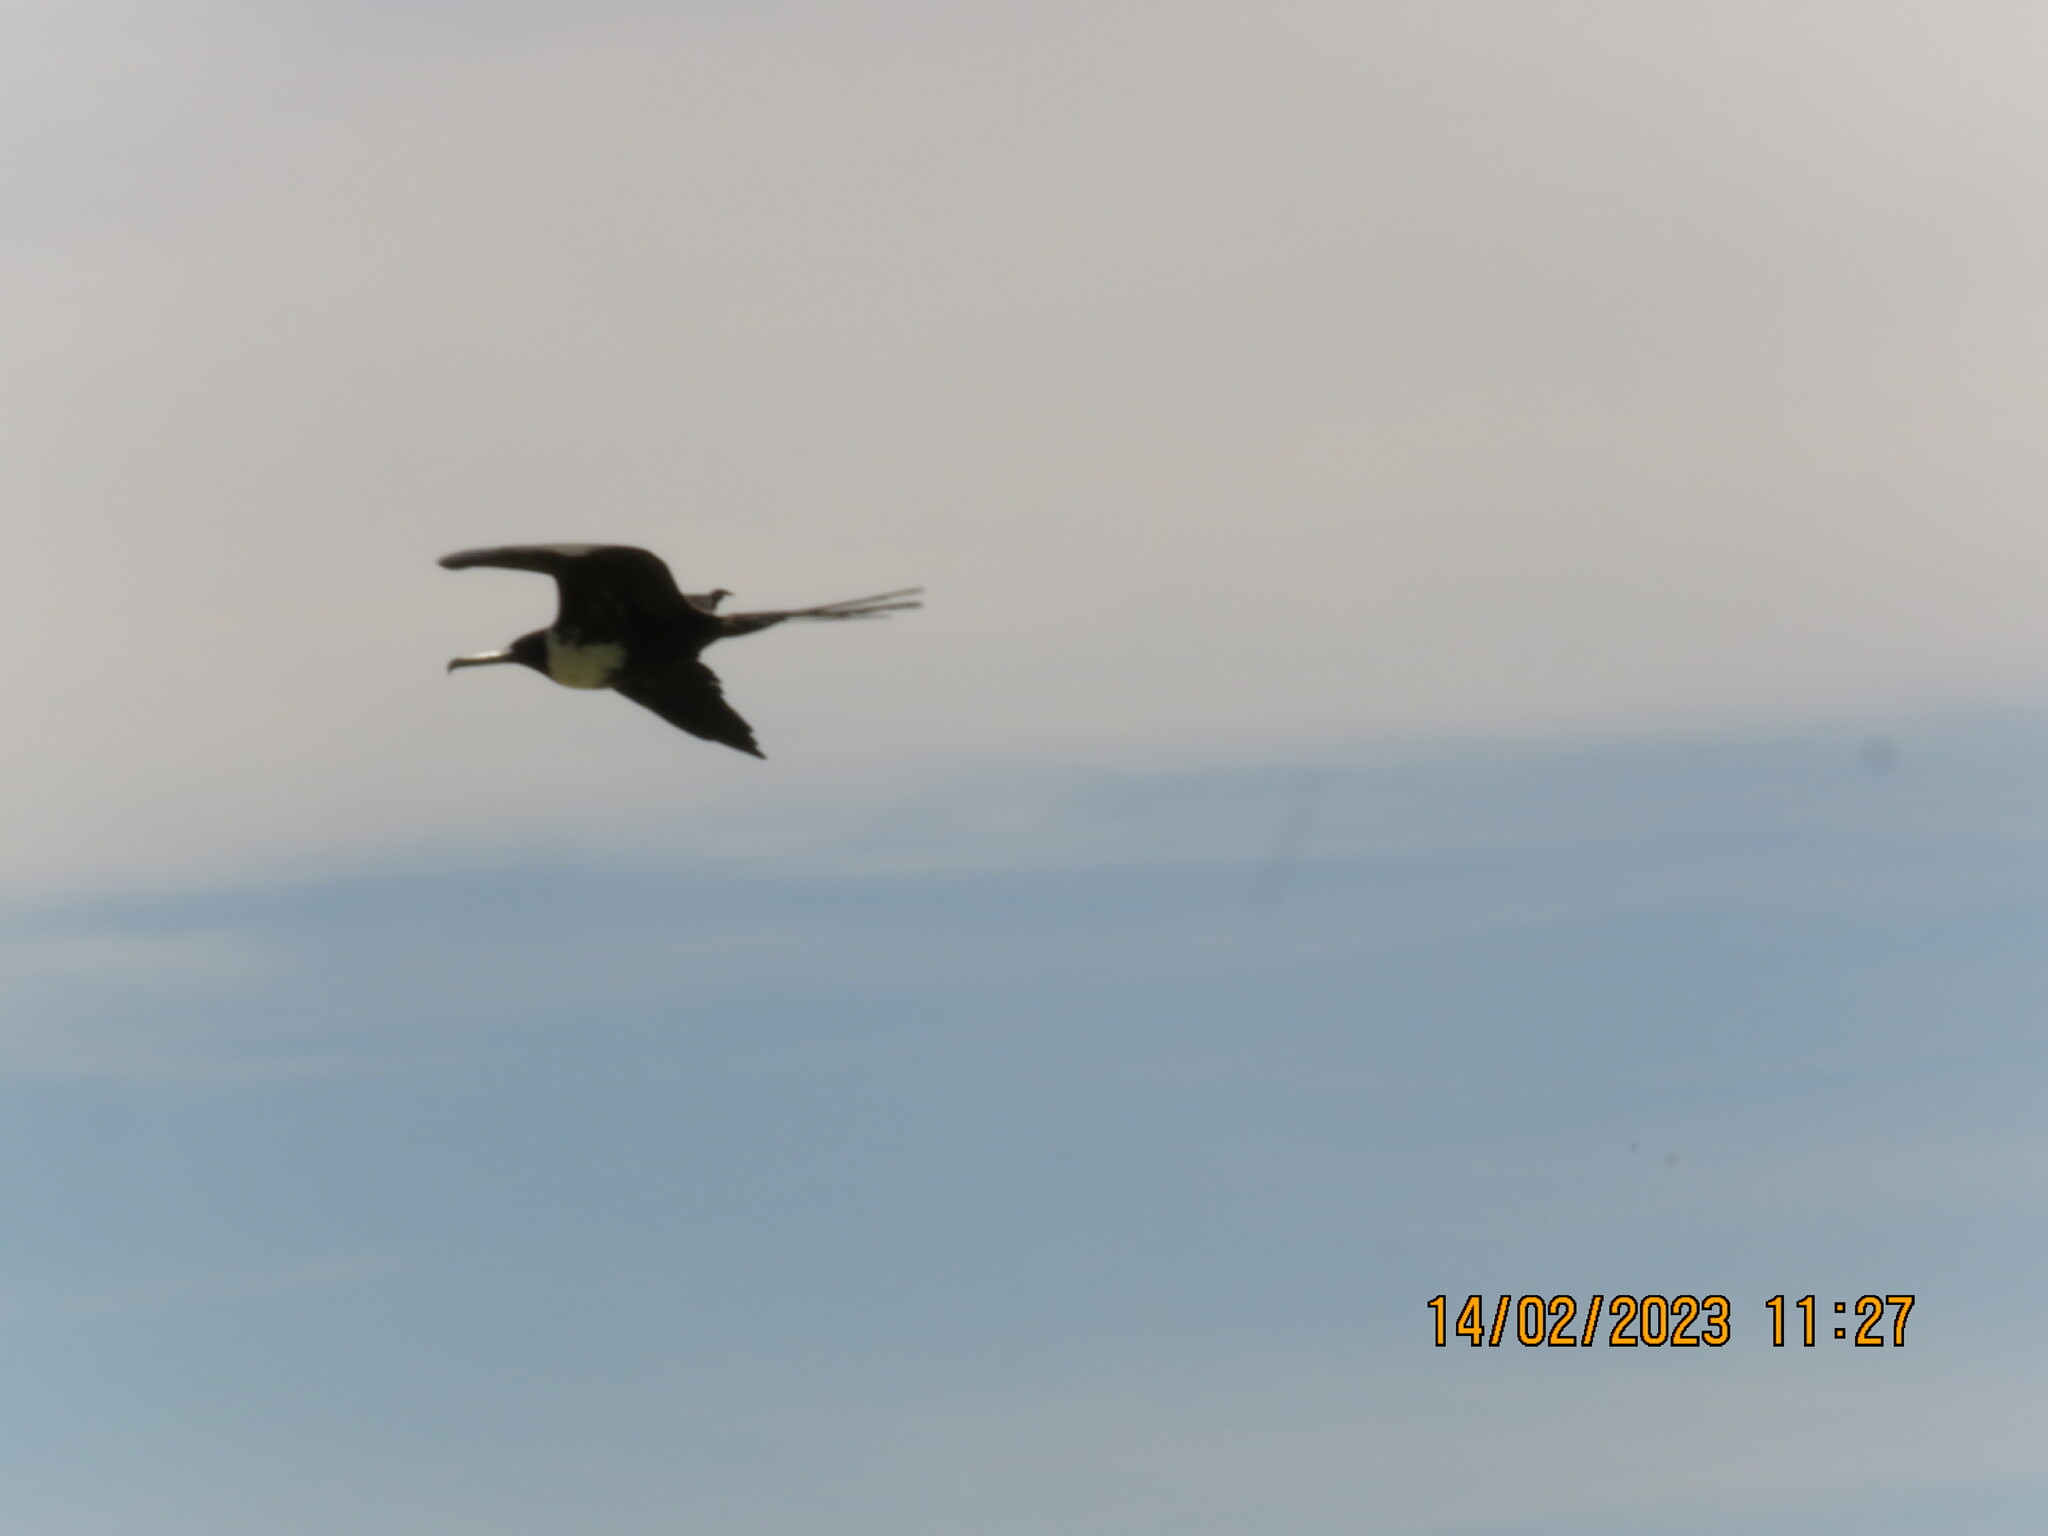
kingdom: Animalia
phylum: Chordata
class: Aves
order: Suliformes
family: Fregatidae
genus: Fregata
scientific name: Fregata magnificens
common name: Magnificent frigatebird
